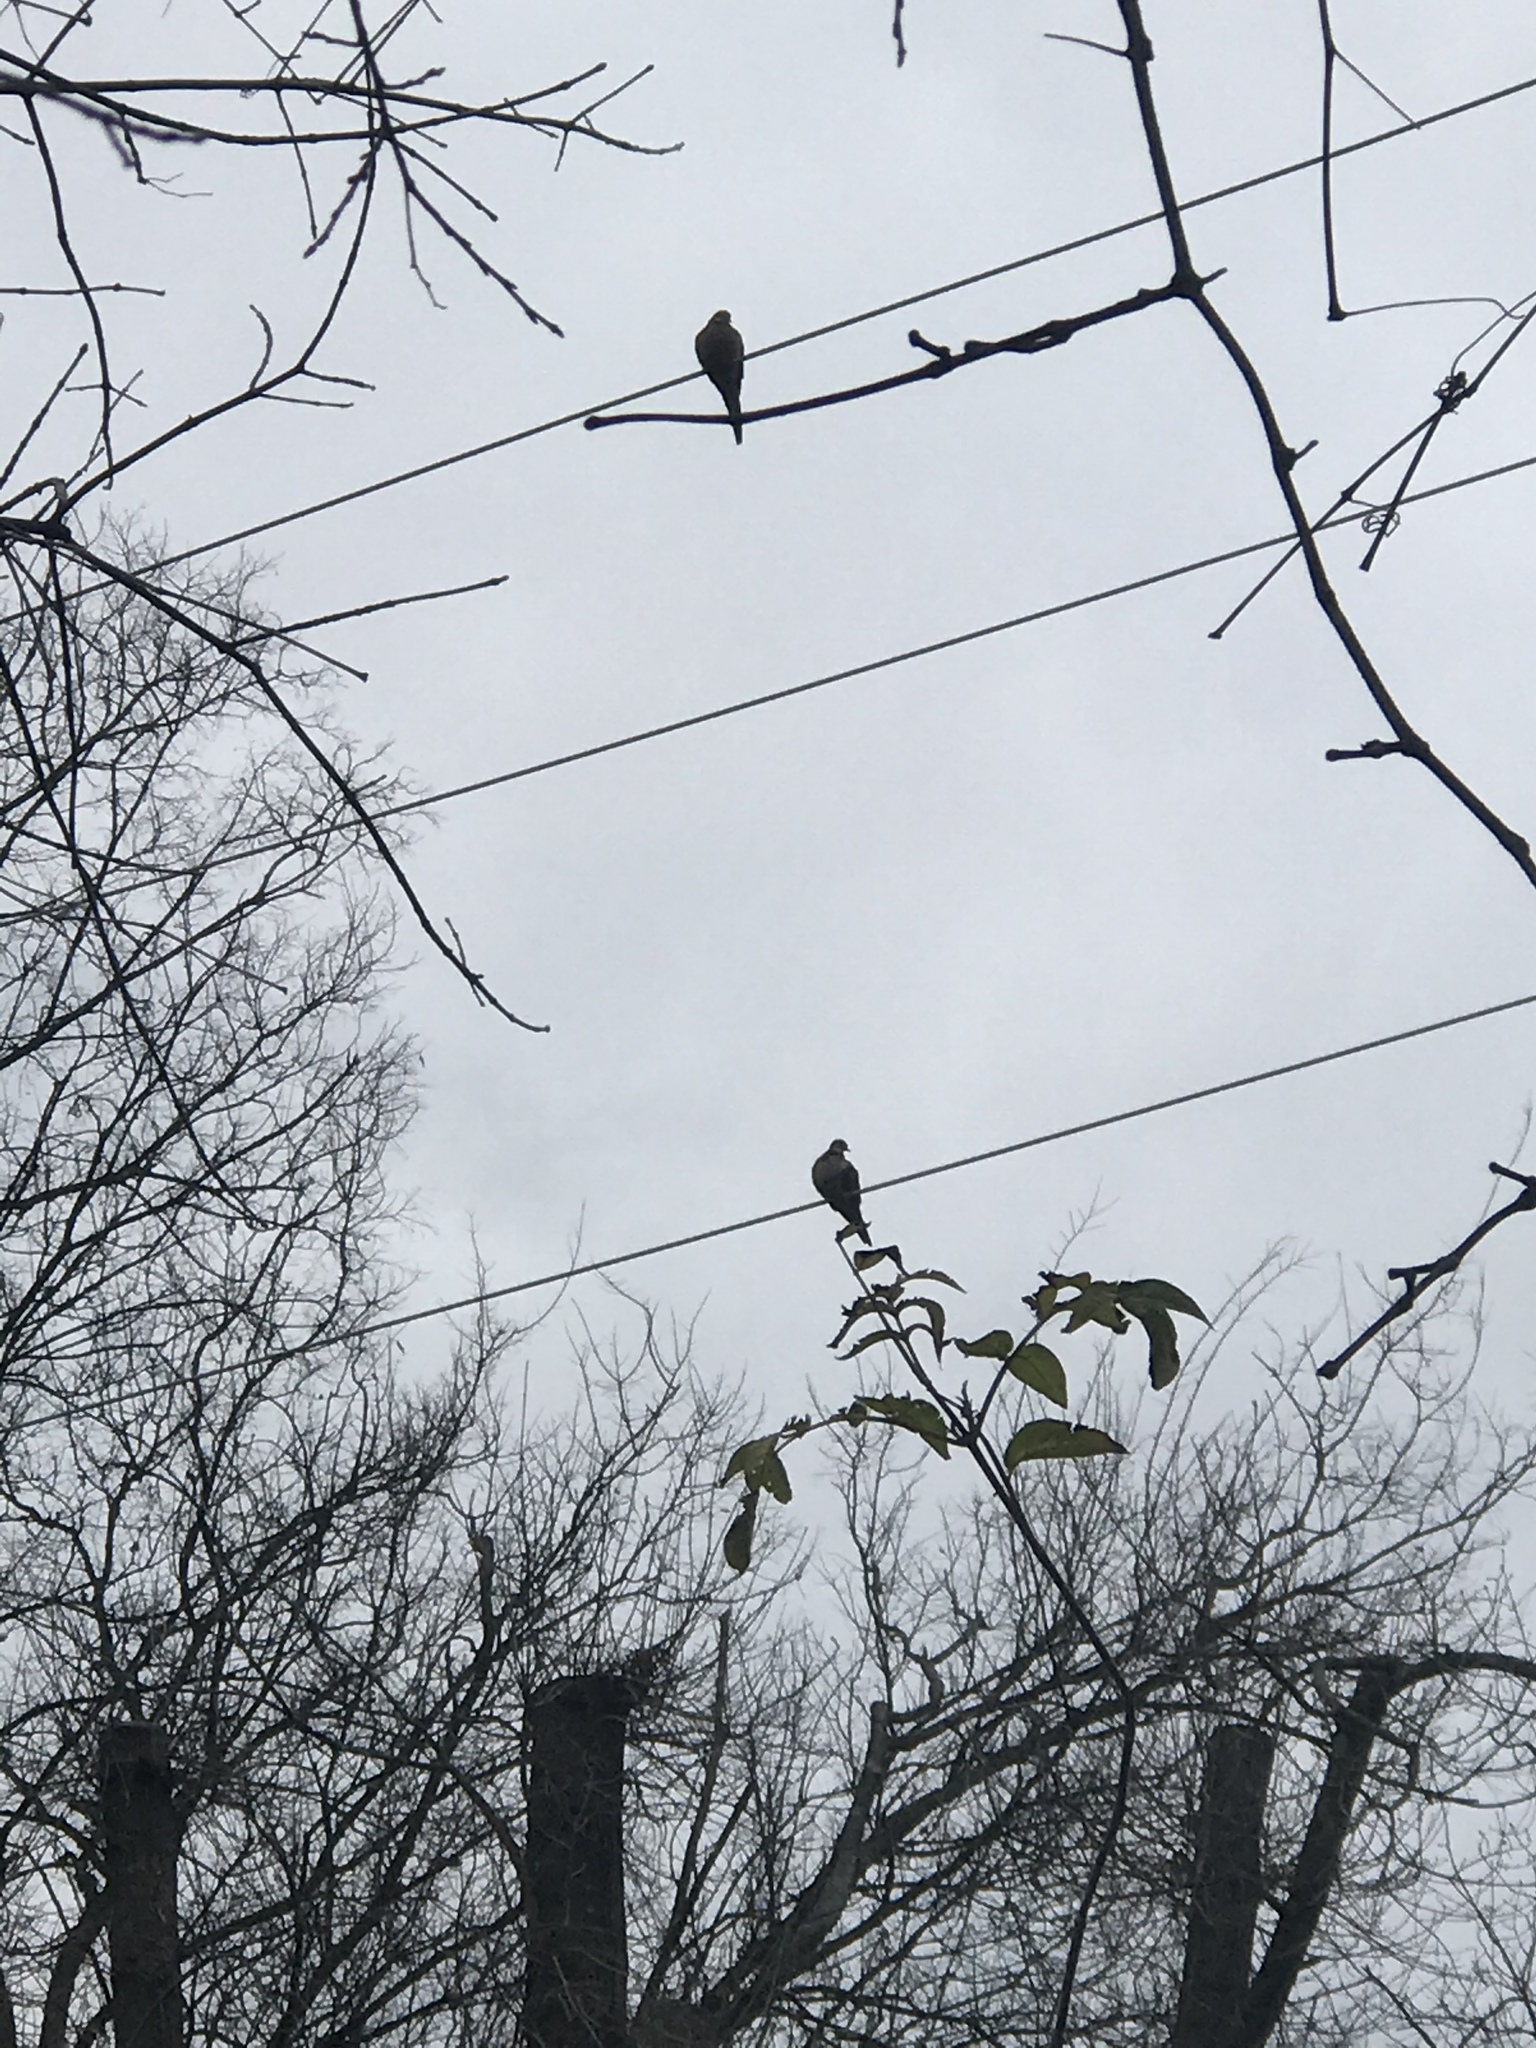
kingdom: Animalia
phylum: Chordata
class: Aves
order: Columbiformes
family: Columbidae
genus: Zenaida
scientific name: Zenaida macroura
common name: Mourning dove
